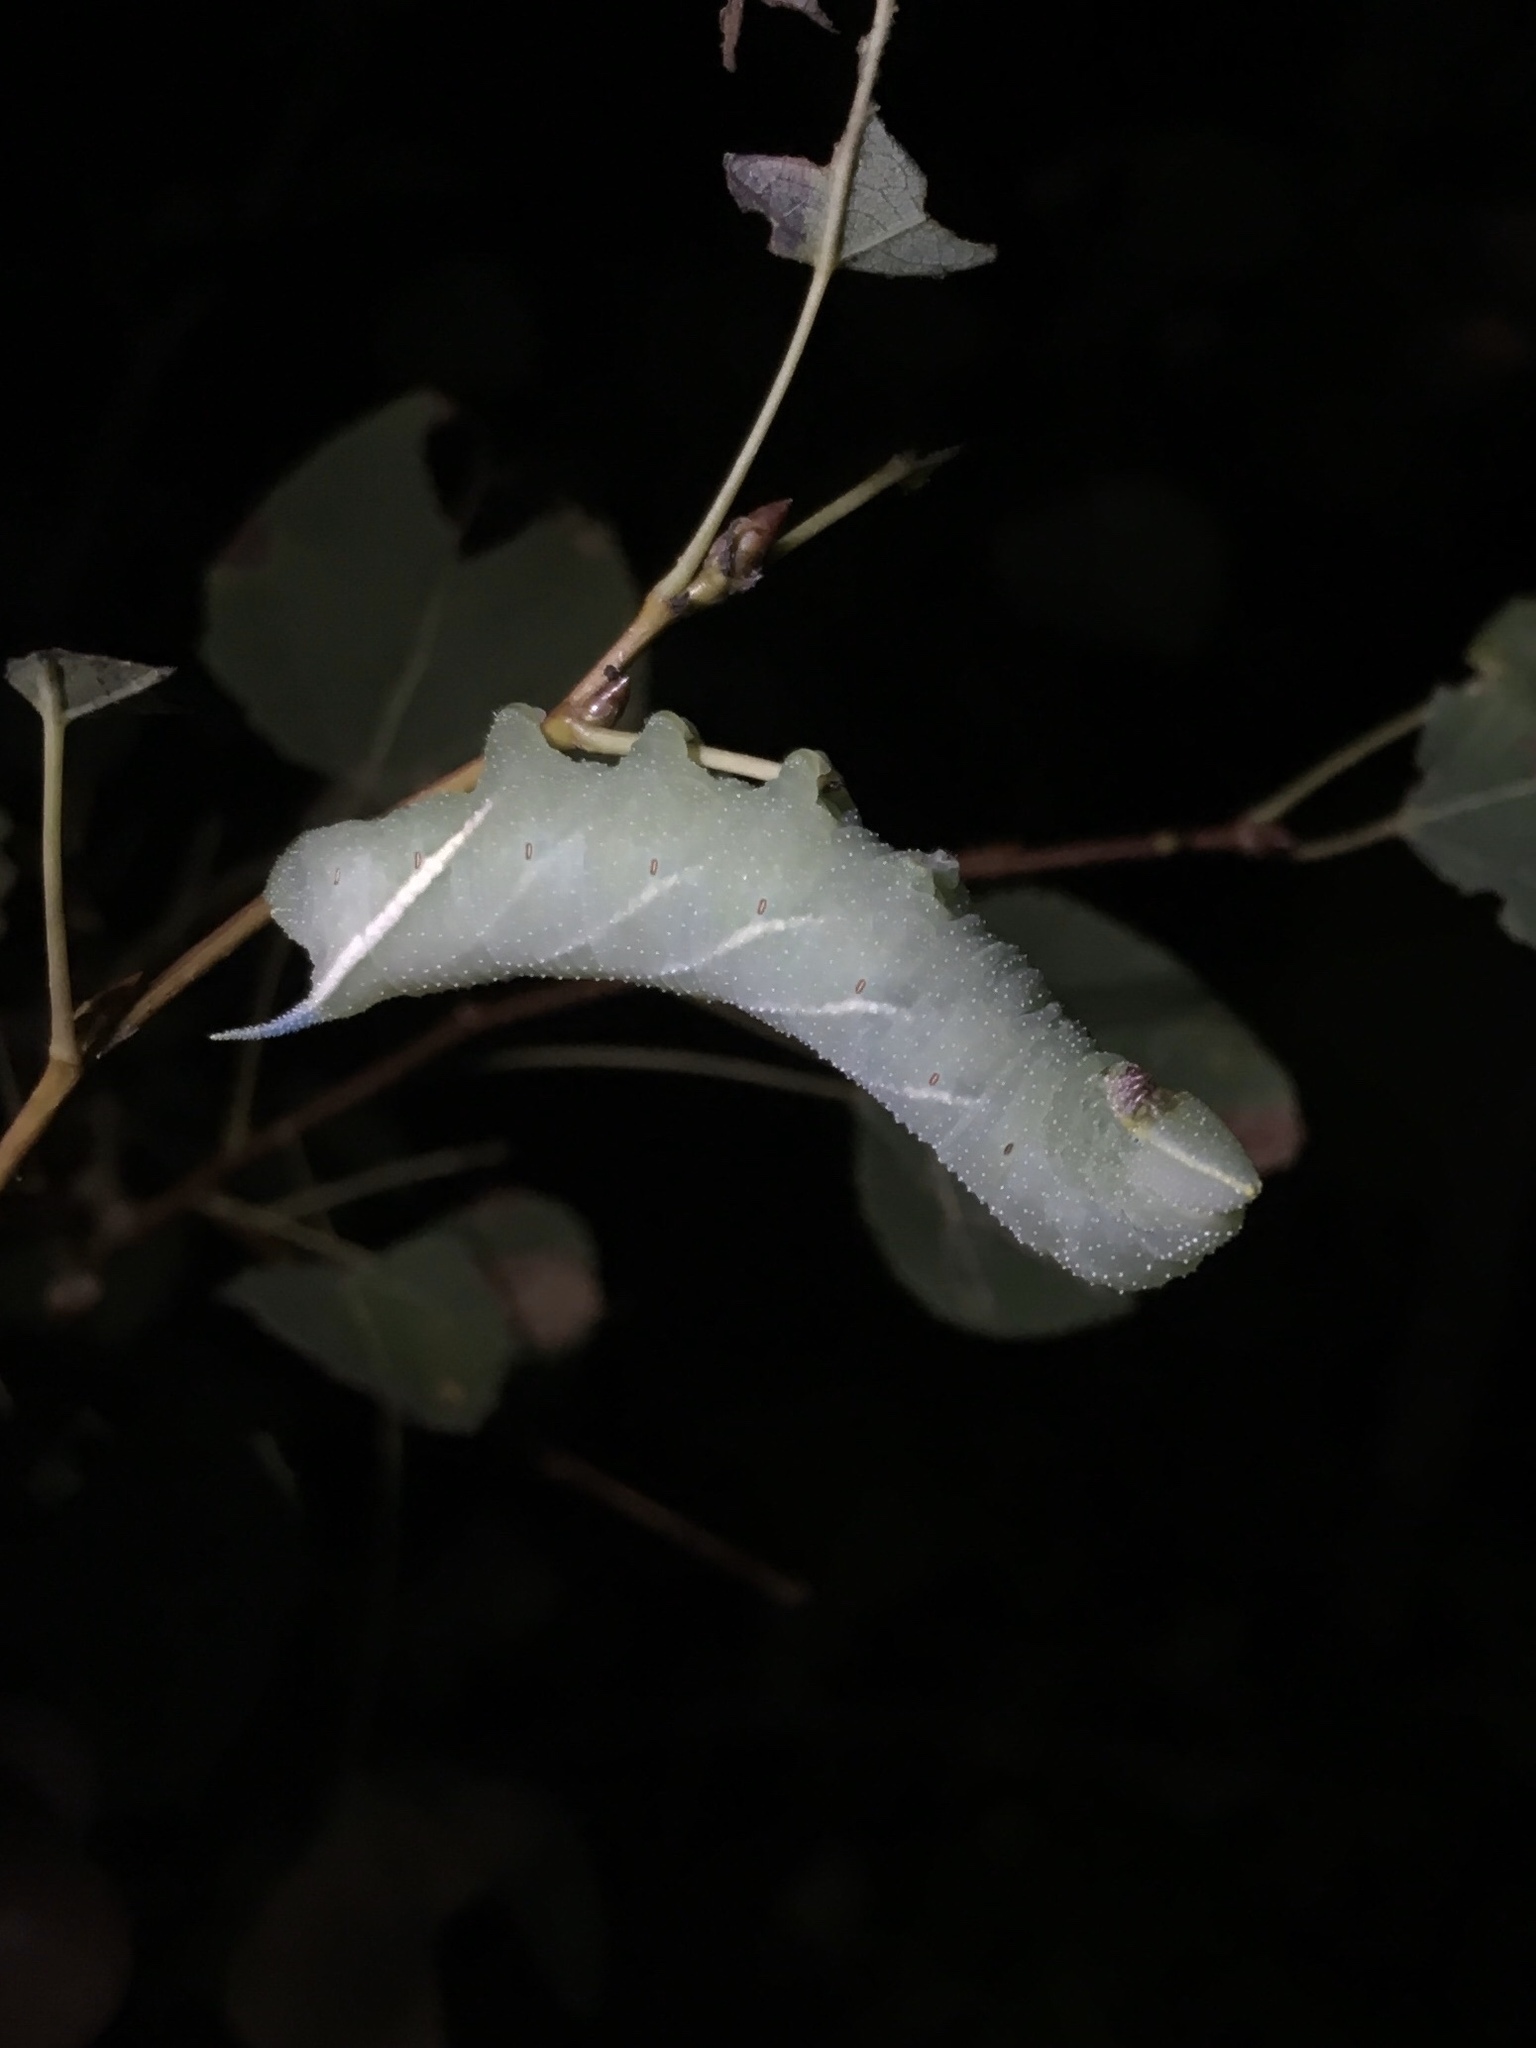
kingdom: Animalia
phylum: Arthropoda
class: Insecta
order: Lepidoptera
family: Sphingidae
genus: Smerinthus
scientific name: Smerinthus jamaicensis
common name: Twin spotted sphinx
